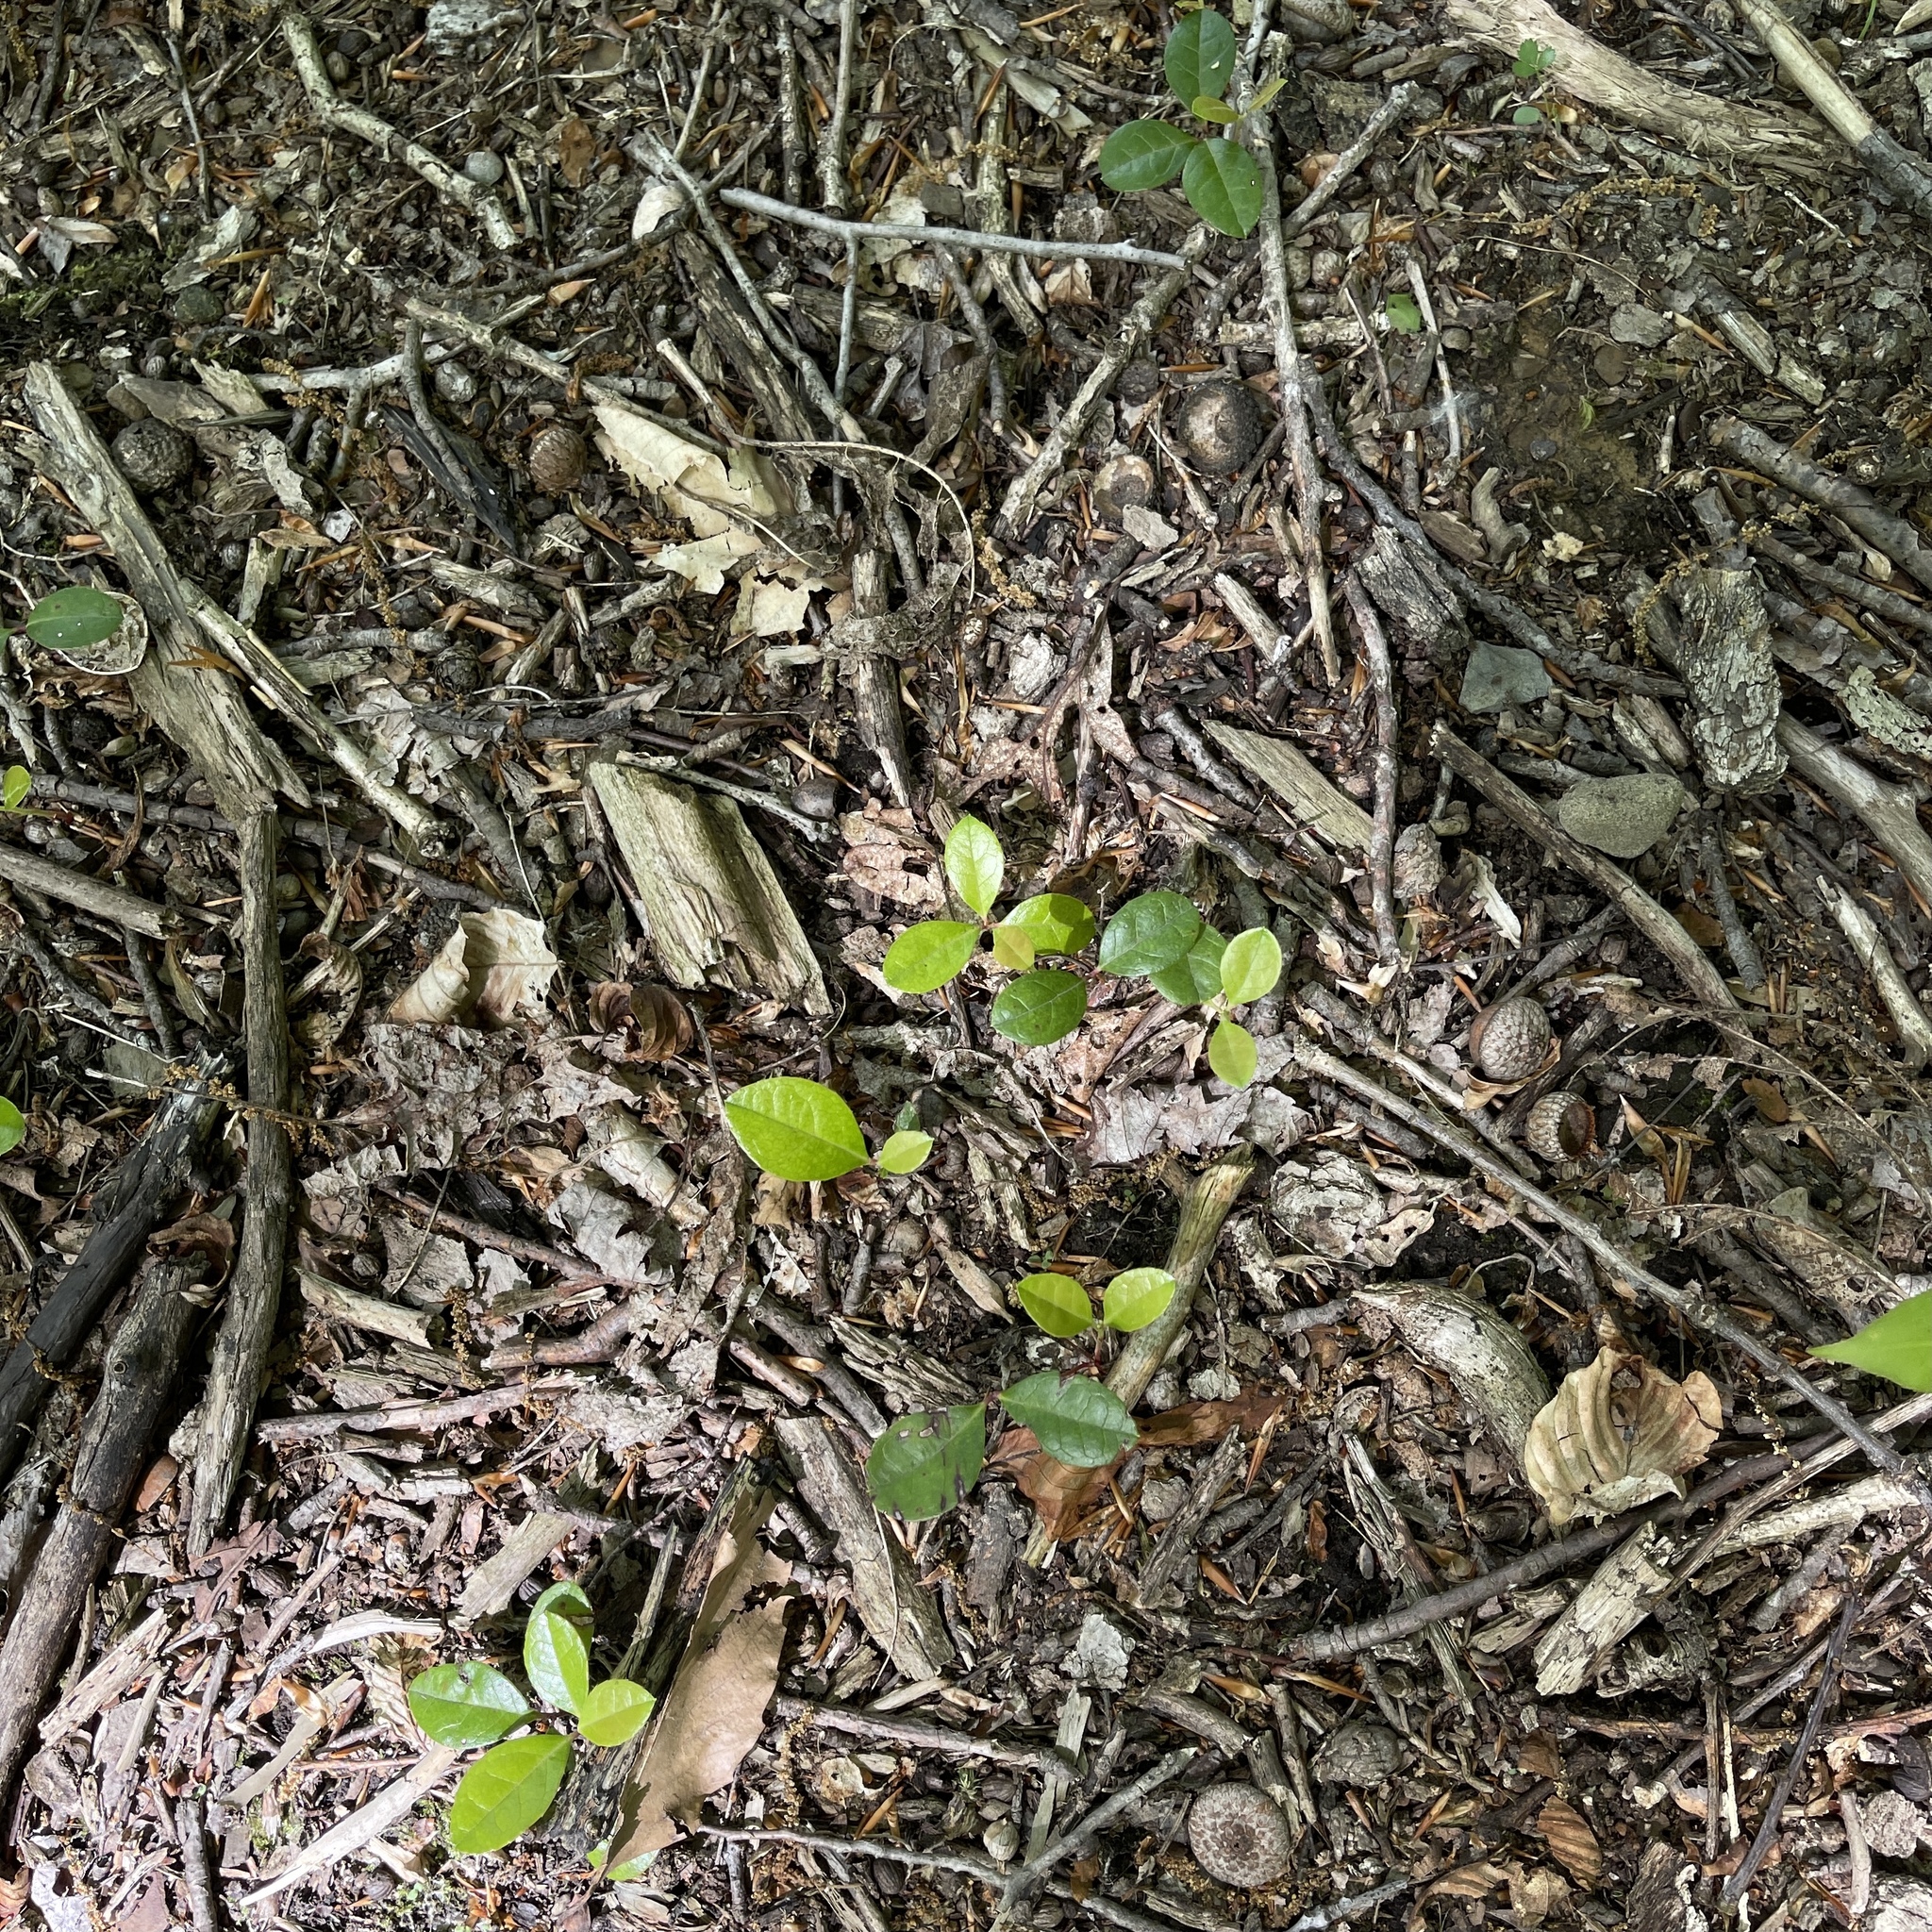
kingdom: Plantae
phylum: Tracheophyta
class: Magnoliopsida
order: Ericales
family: Ericaceae
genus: Gaultheria
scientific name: Gaultheria procumbens
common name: Checkerberry
